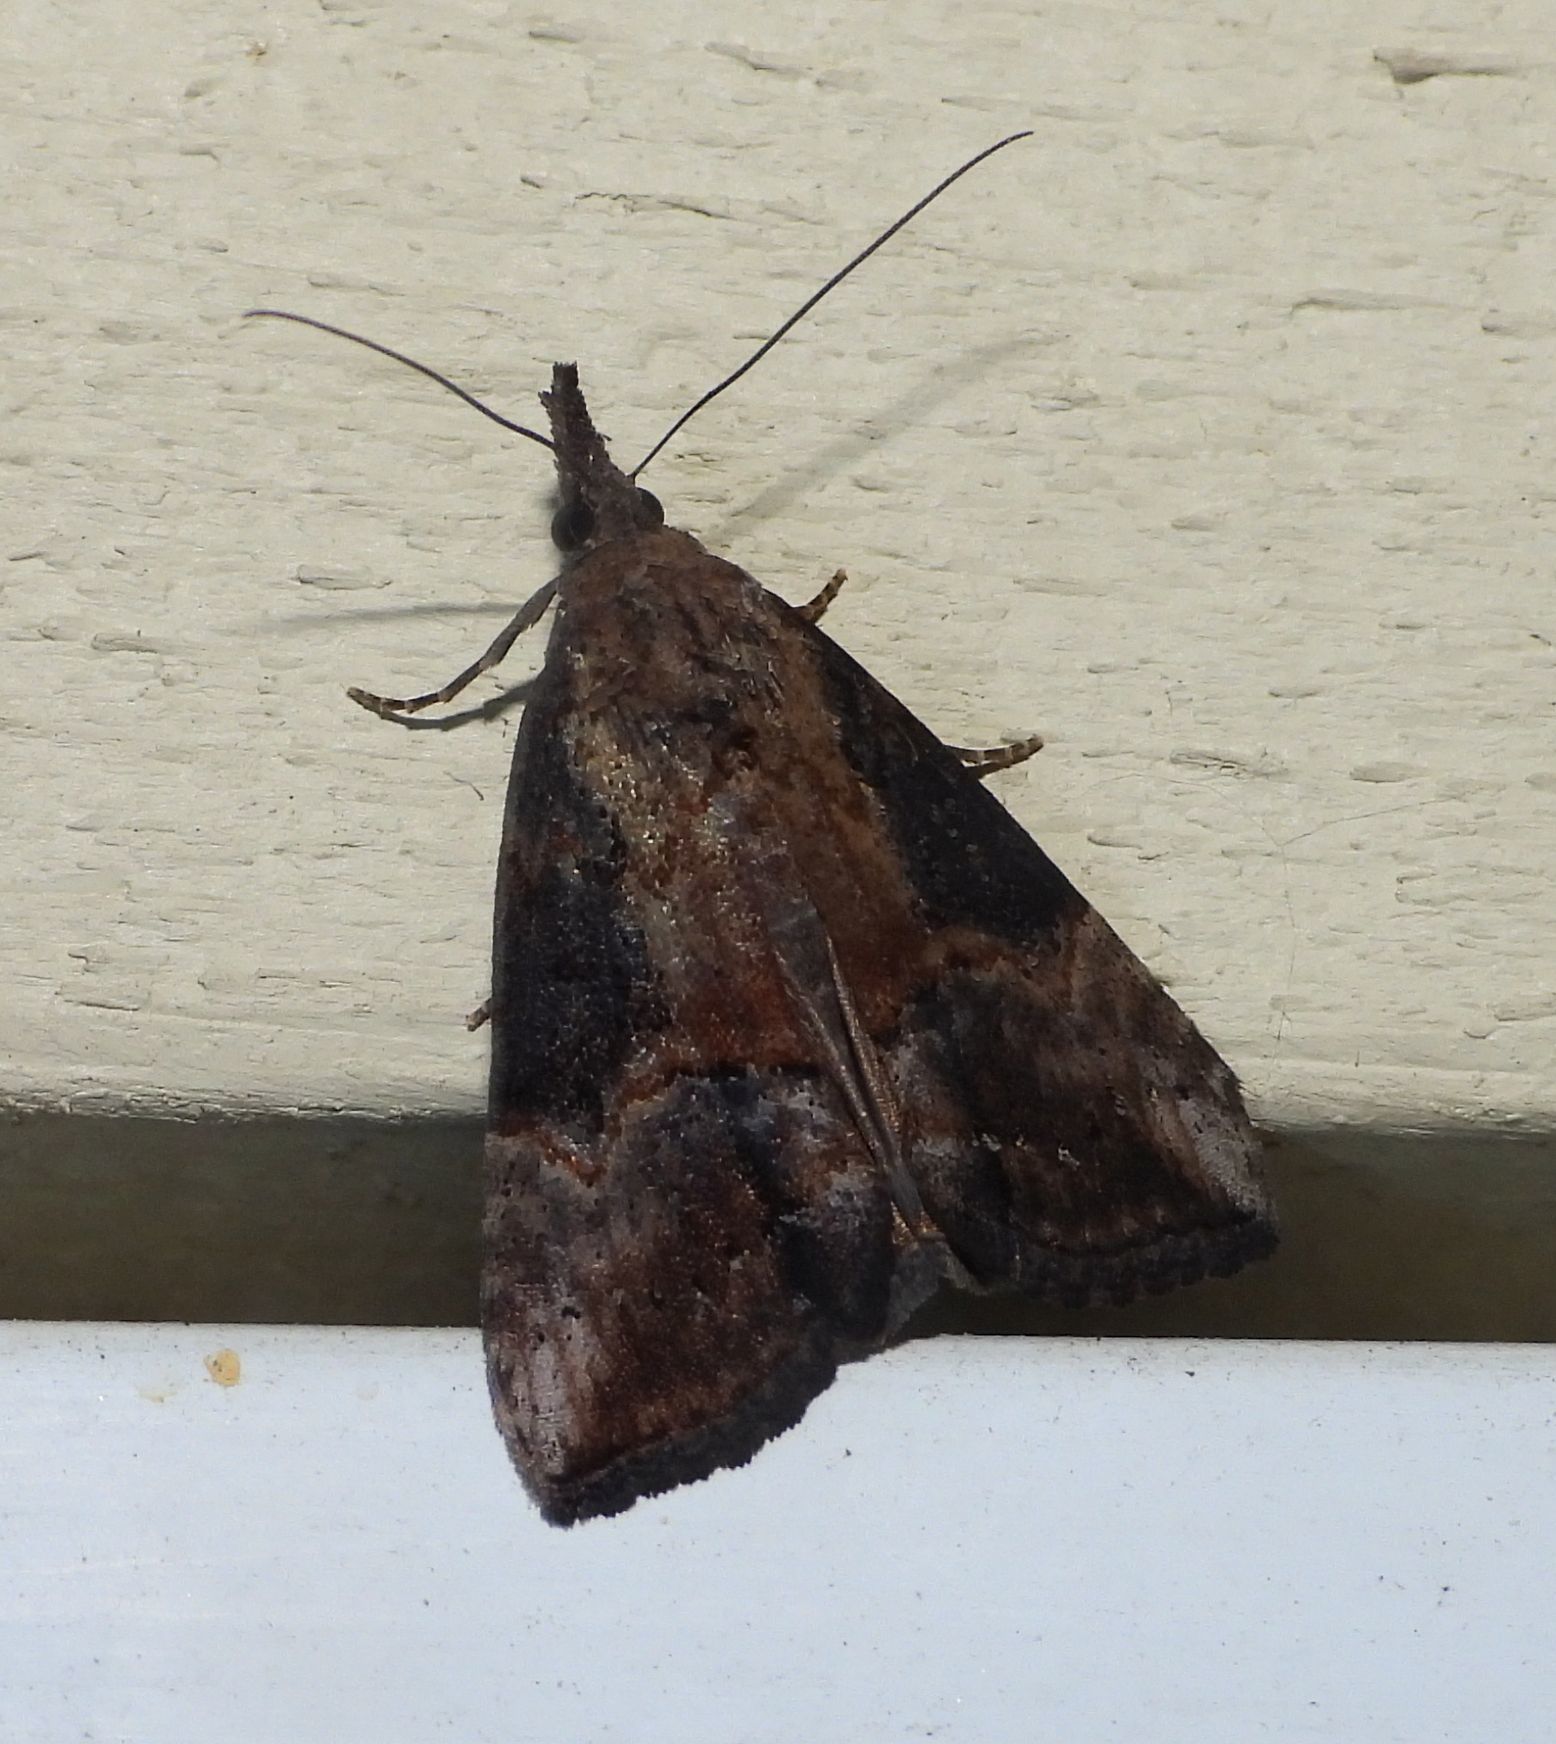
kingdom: Animalia
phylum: Arthropoda
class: Insecta
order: Lepidoptera
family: Erebidae
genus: Hypena
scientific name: Hypena scabra
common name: Green cloverworm
